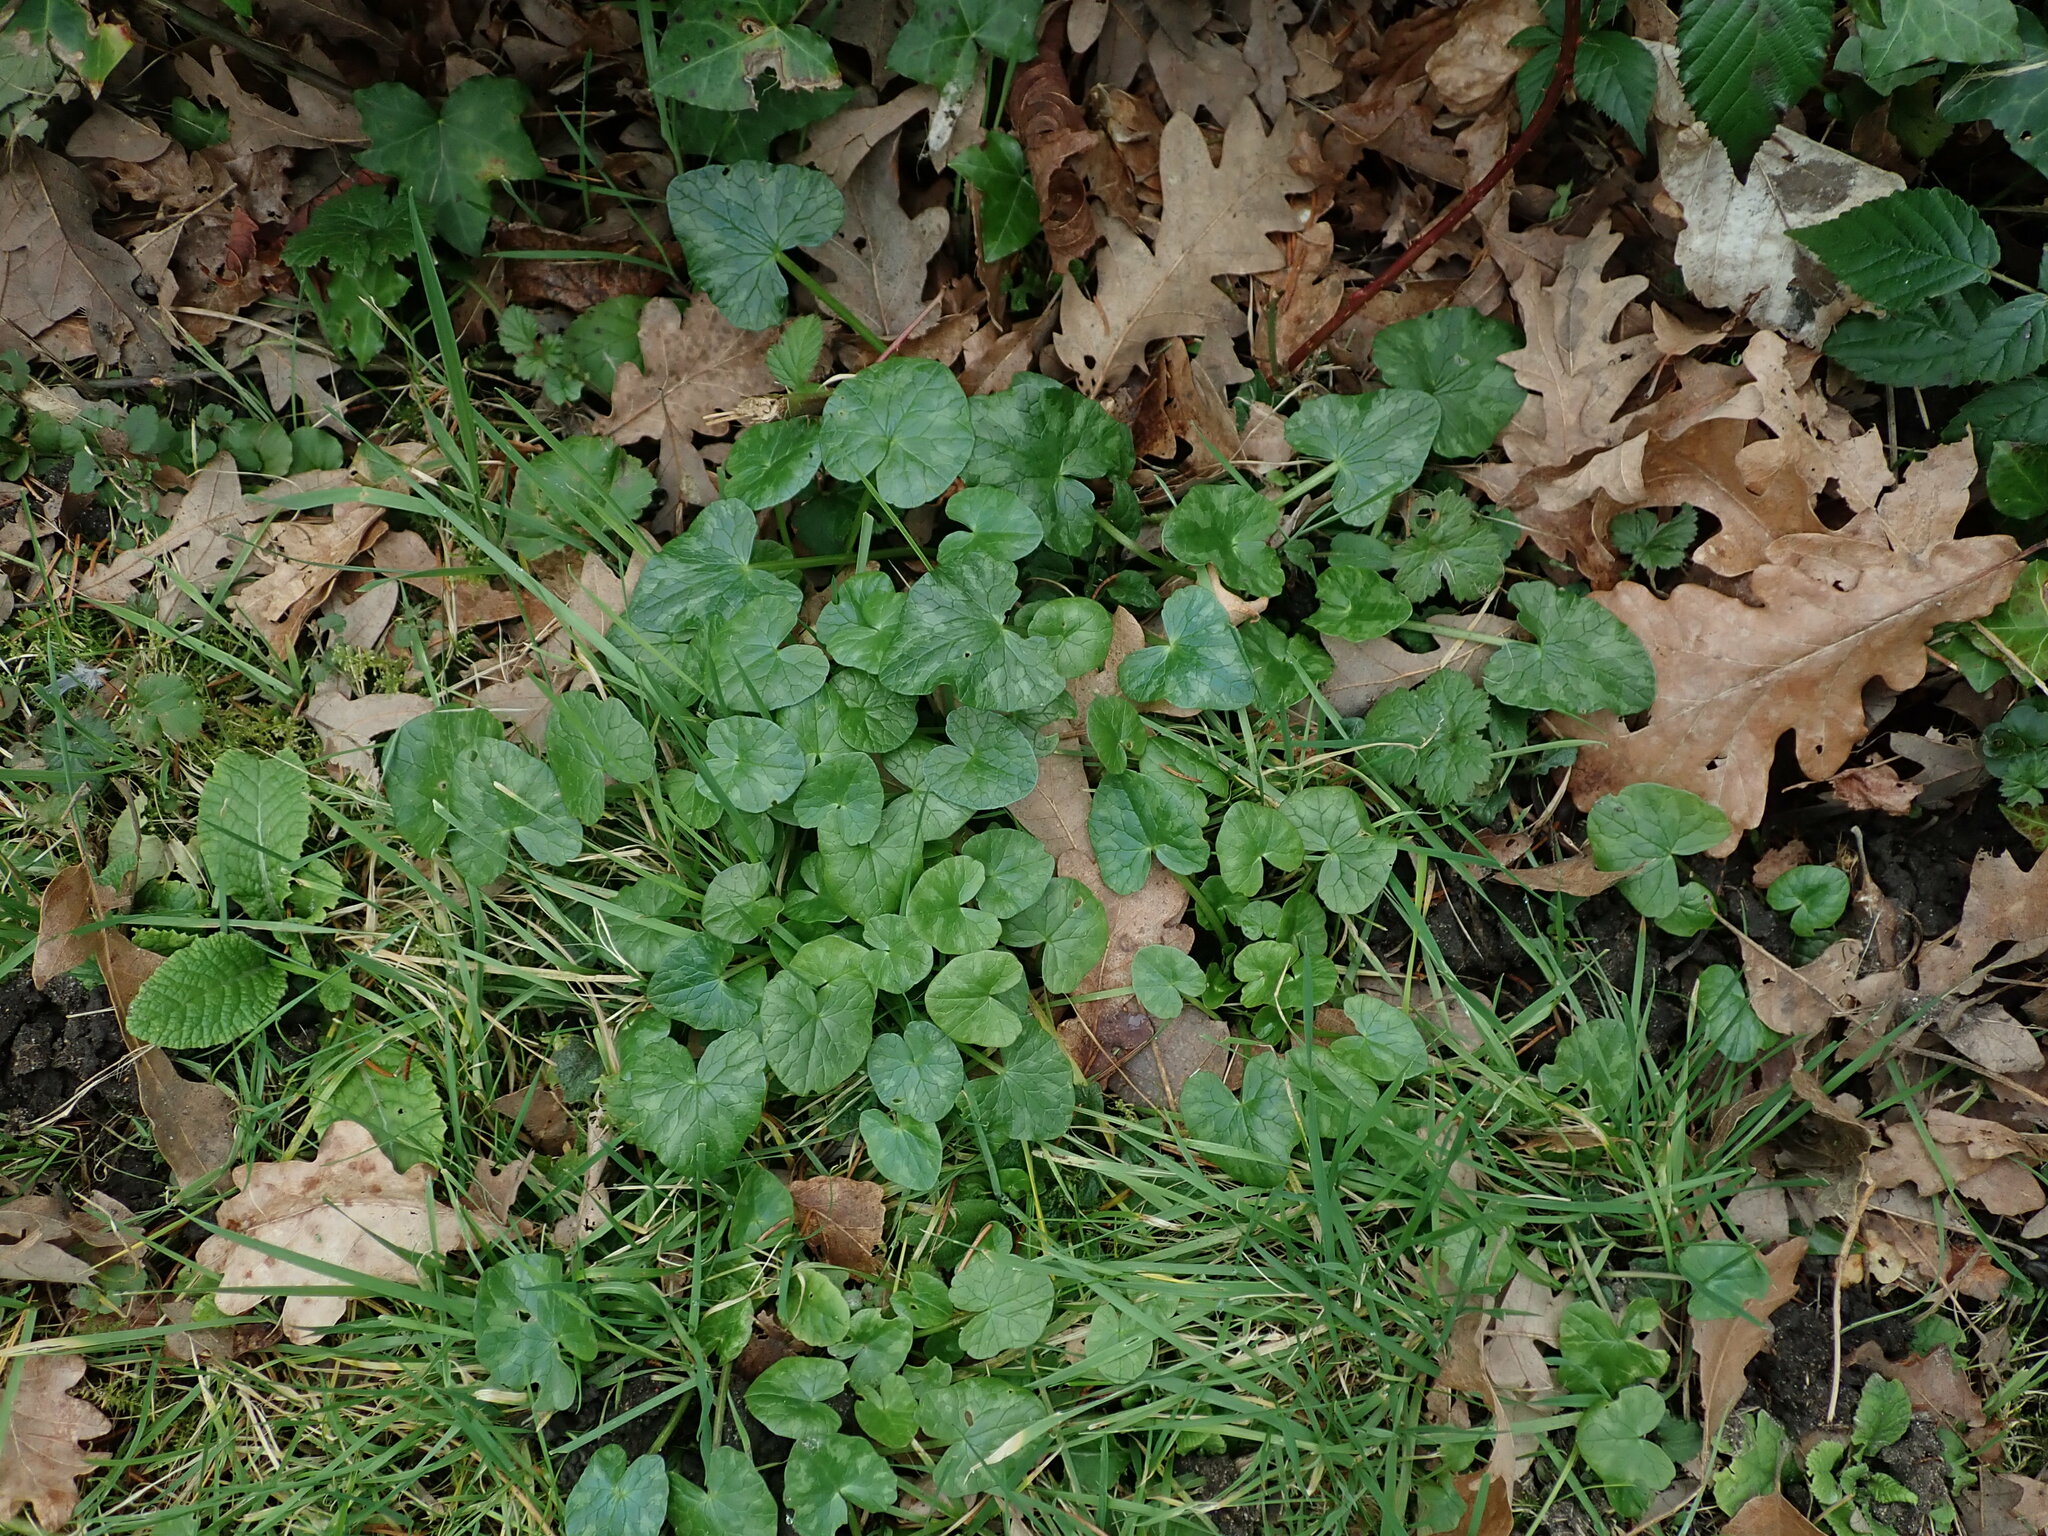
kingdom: Plantae
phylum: Tracheophyta
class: Magnoliopsida
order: Ranunculales
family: Ranunculaceae
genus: Ficaria
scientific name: Ficaria verna
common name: Lesser celandine
